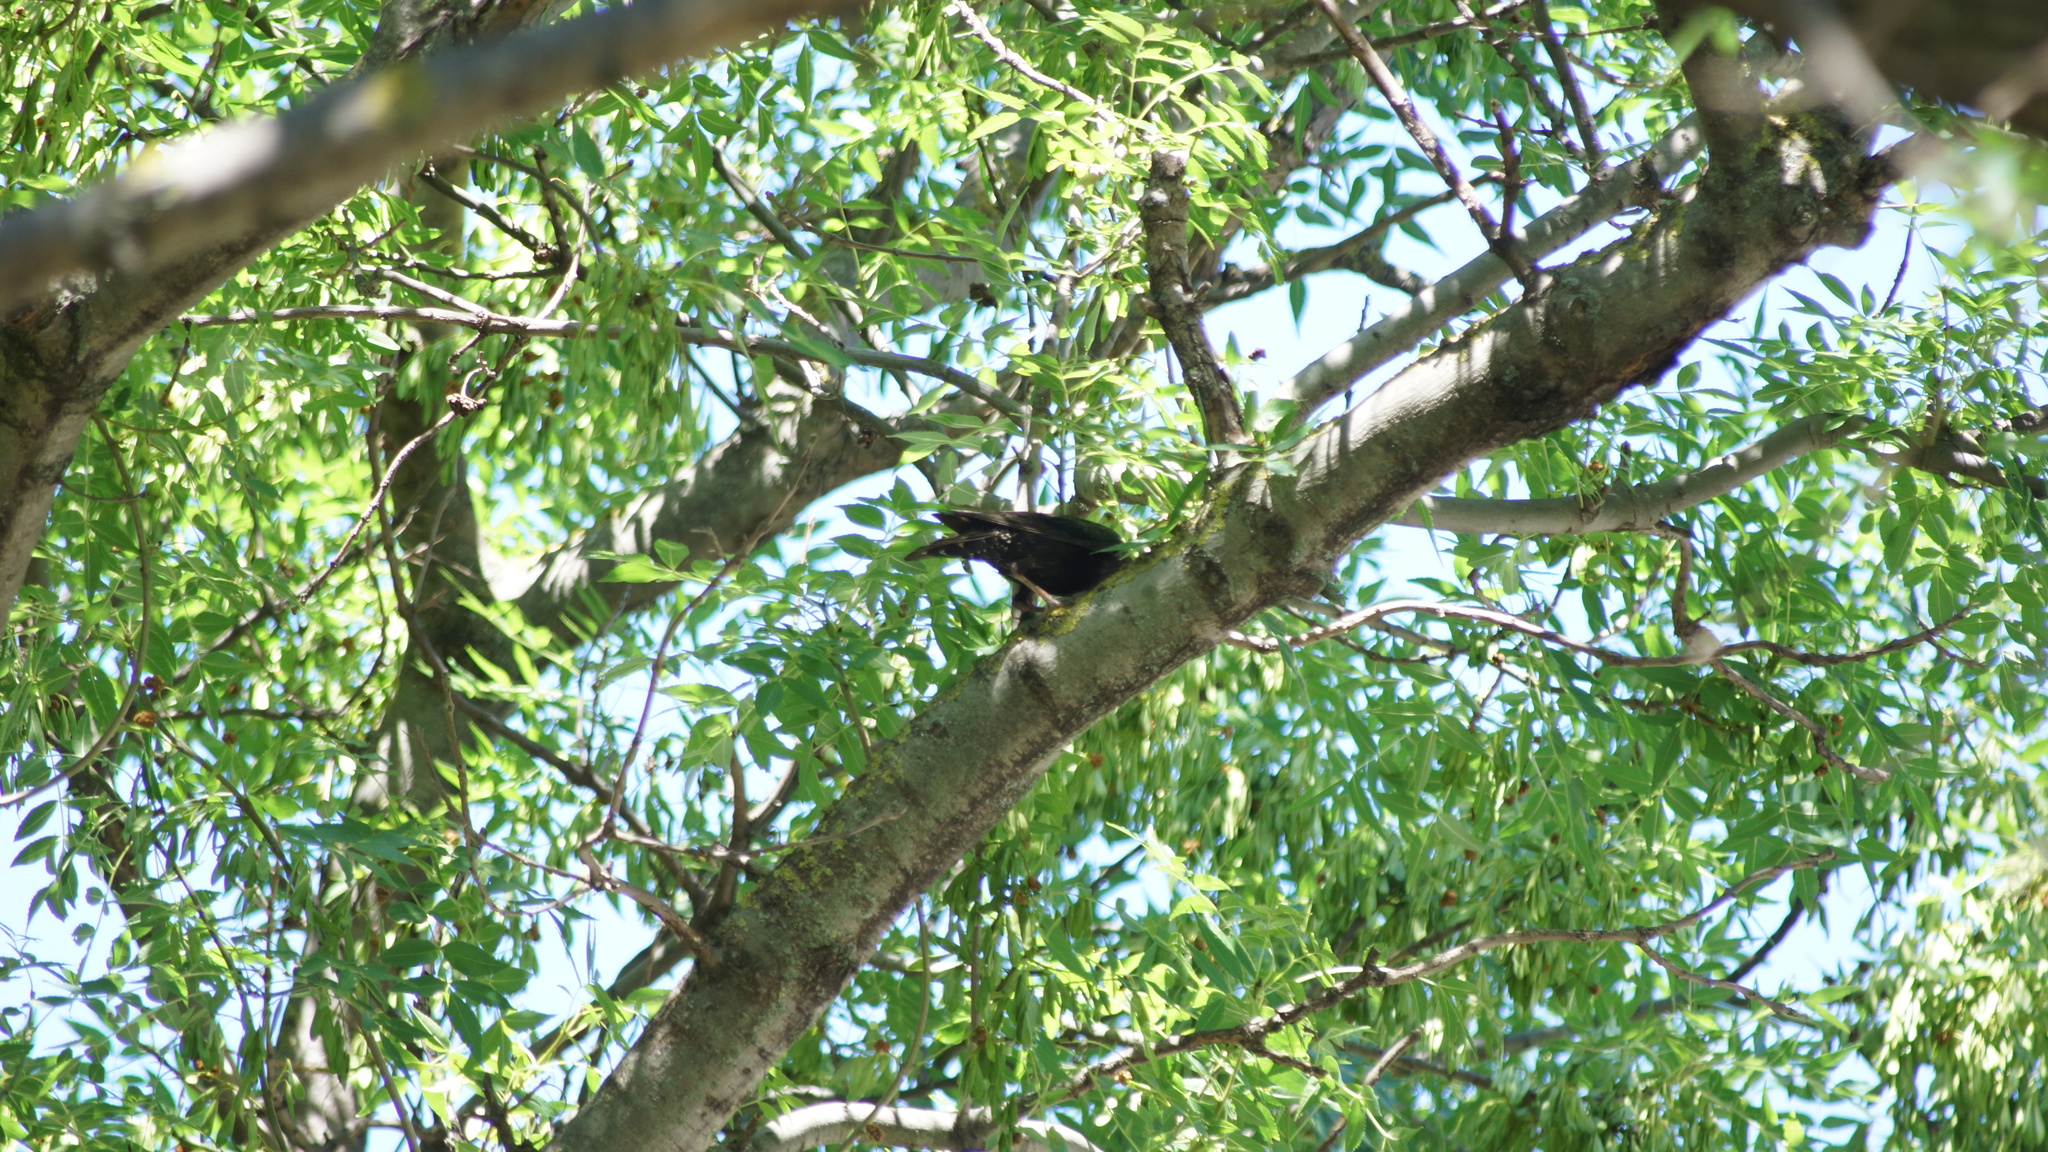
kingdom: Animalia
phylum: Chordata
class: Aves
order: Passeriformes
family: Sturnidae
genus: Sturnus
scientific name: Sturnus vulgaris
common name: Common starling
